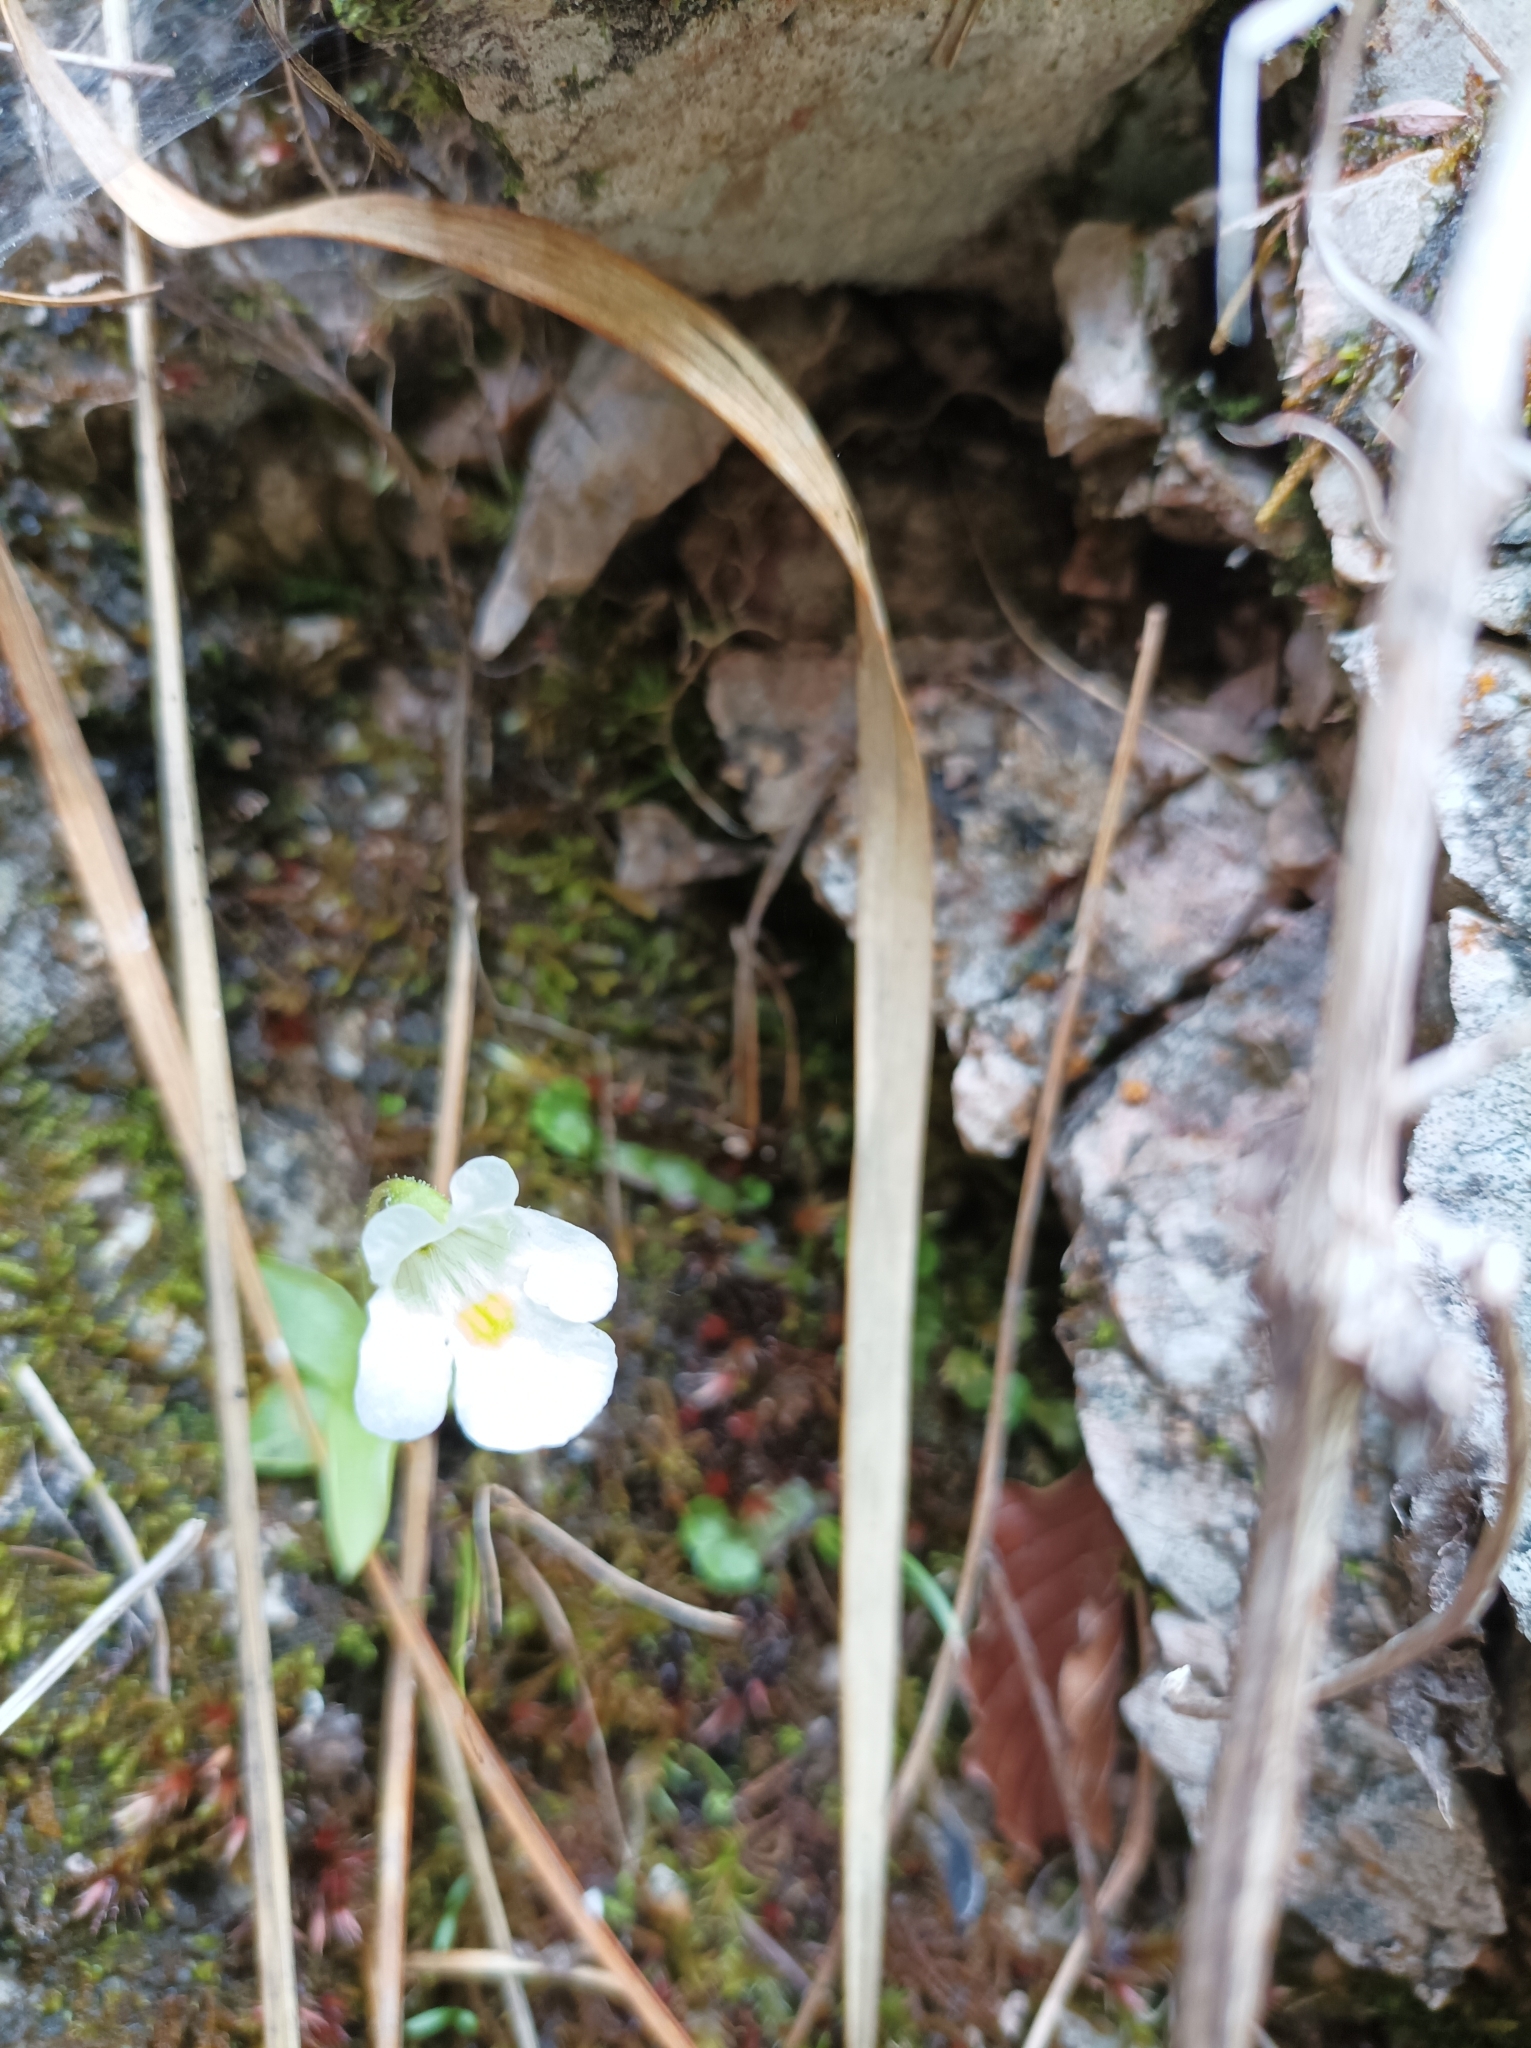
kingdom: Plantae
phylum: Tracheophyta
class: Magnoliopsida
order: Lamiales
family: Lentibulariaceae
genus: Pinguicula
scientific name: Pinguicula alpina
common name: Alpine butterwort
